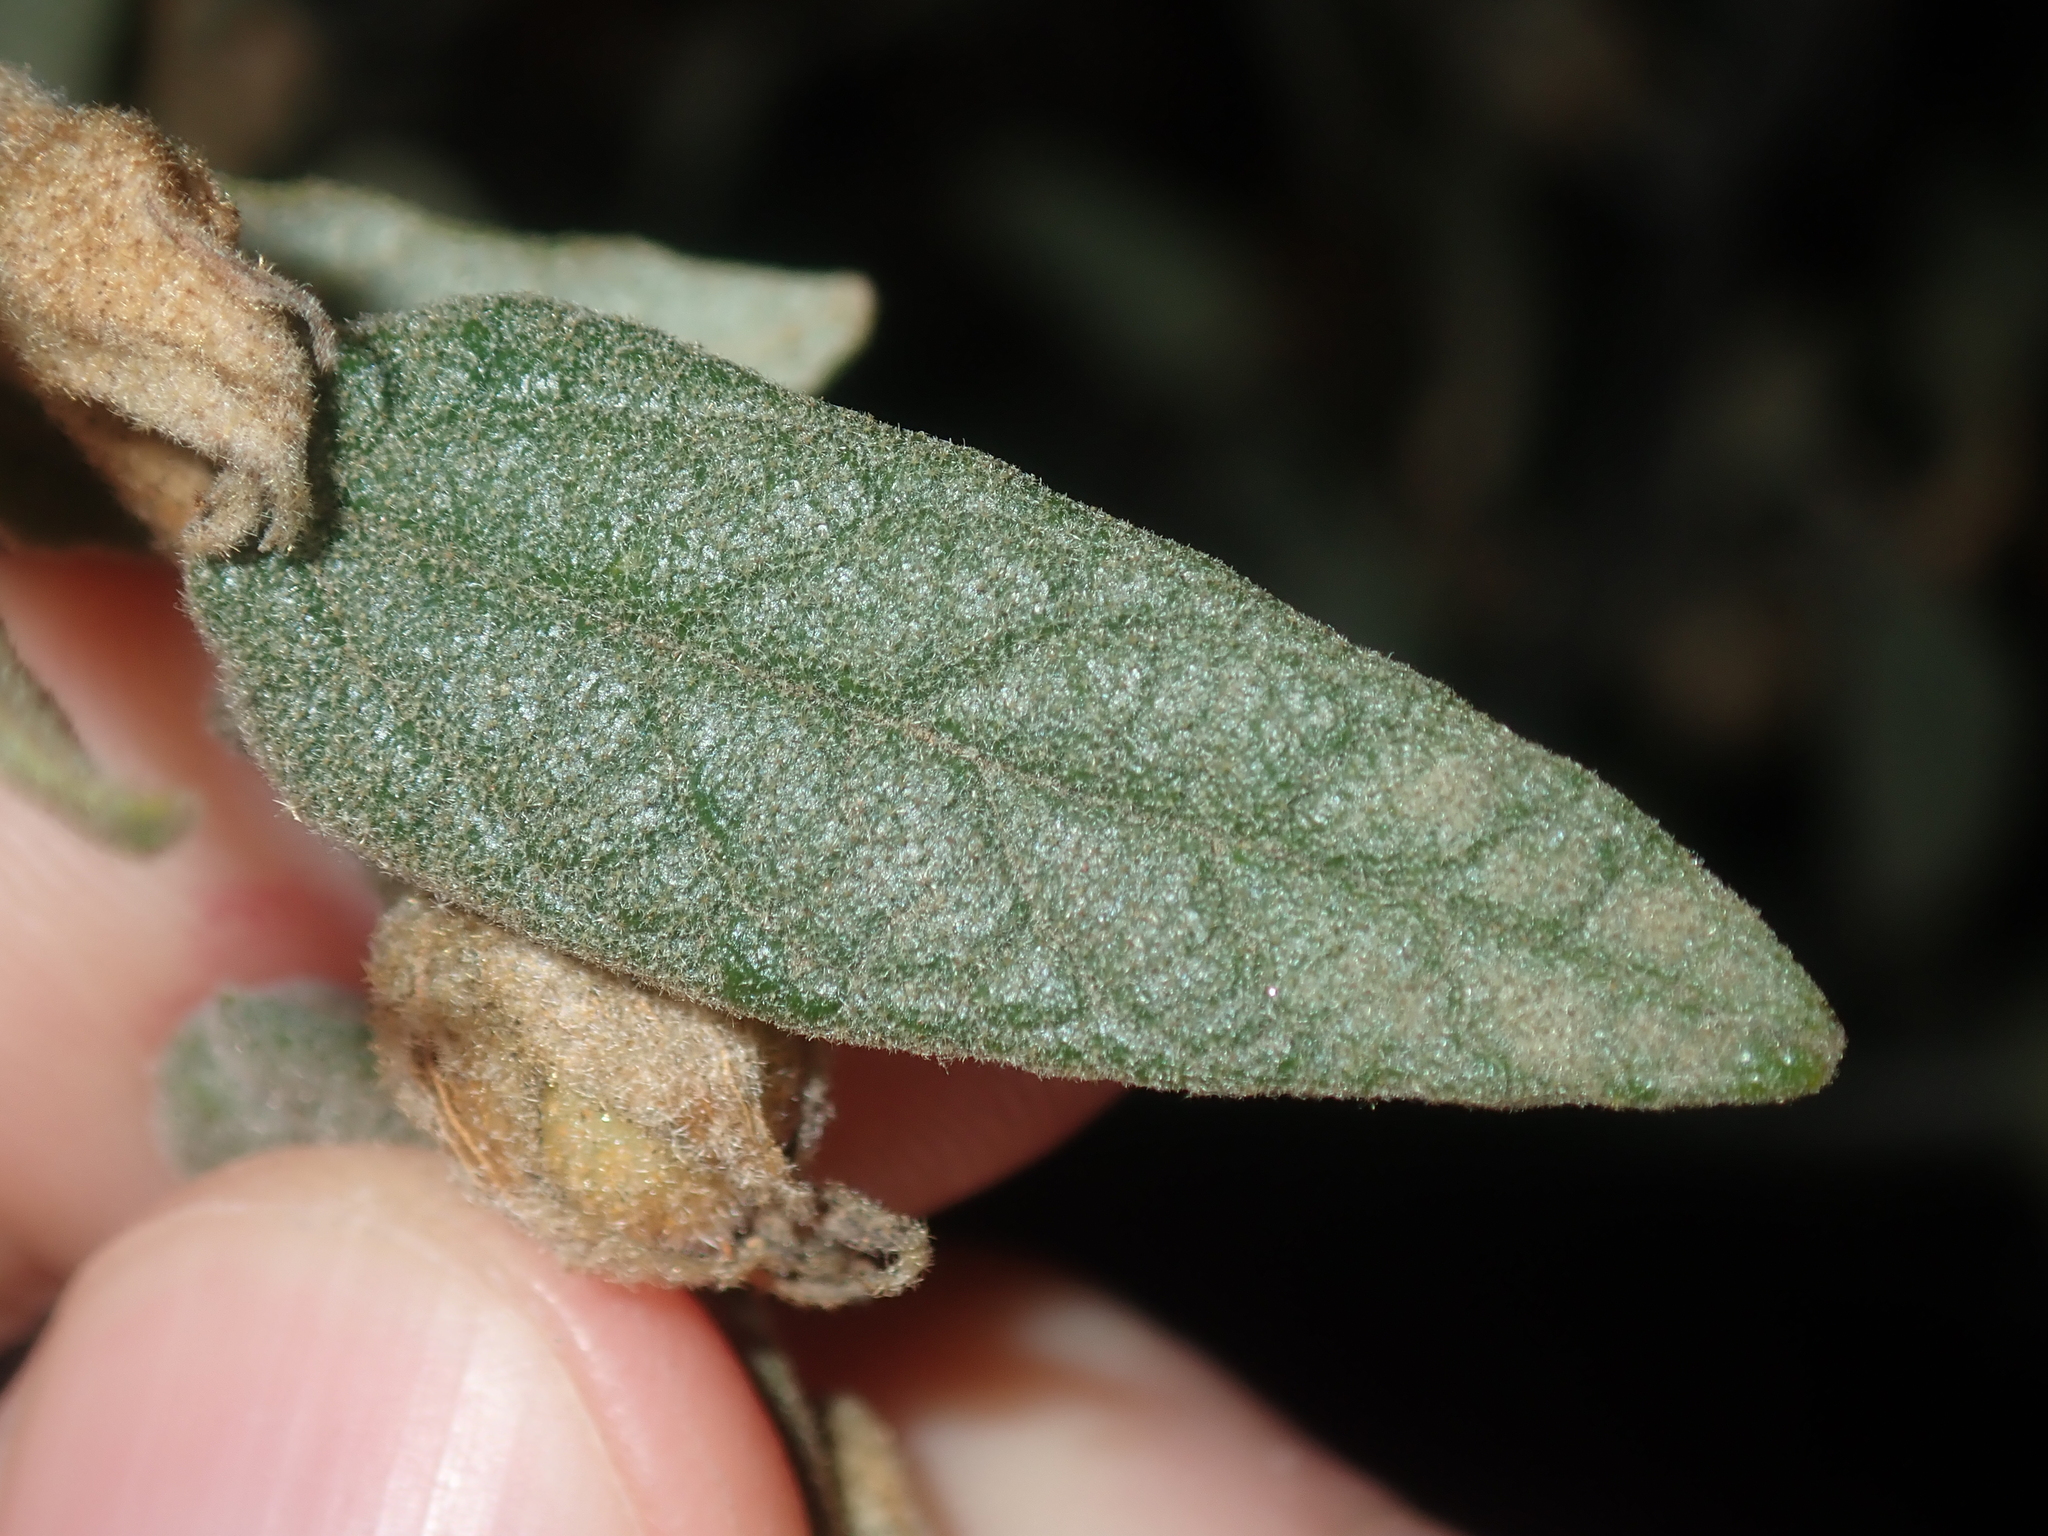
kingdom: Plantae
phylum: Tracheophyta
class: Magnoliopsida
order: Malvales
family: Malvaceae
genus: Hannafordia
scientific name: Hannafordia bissillii
